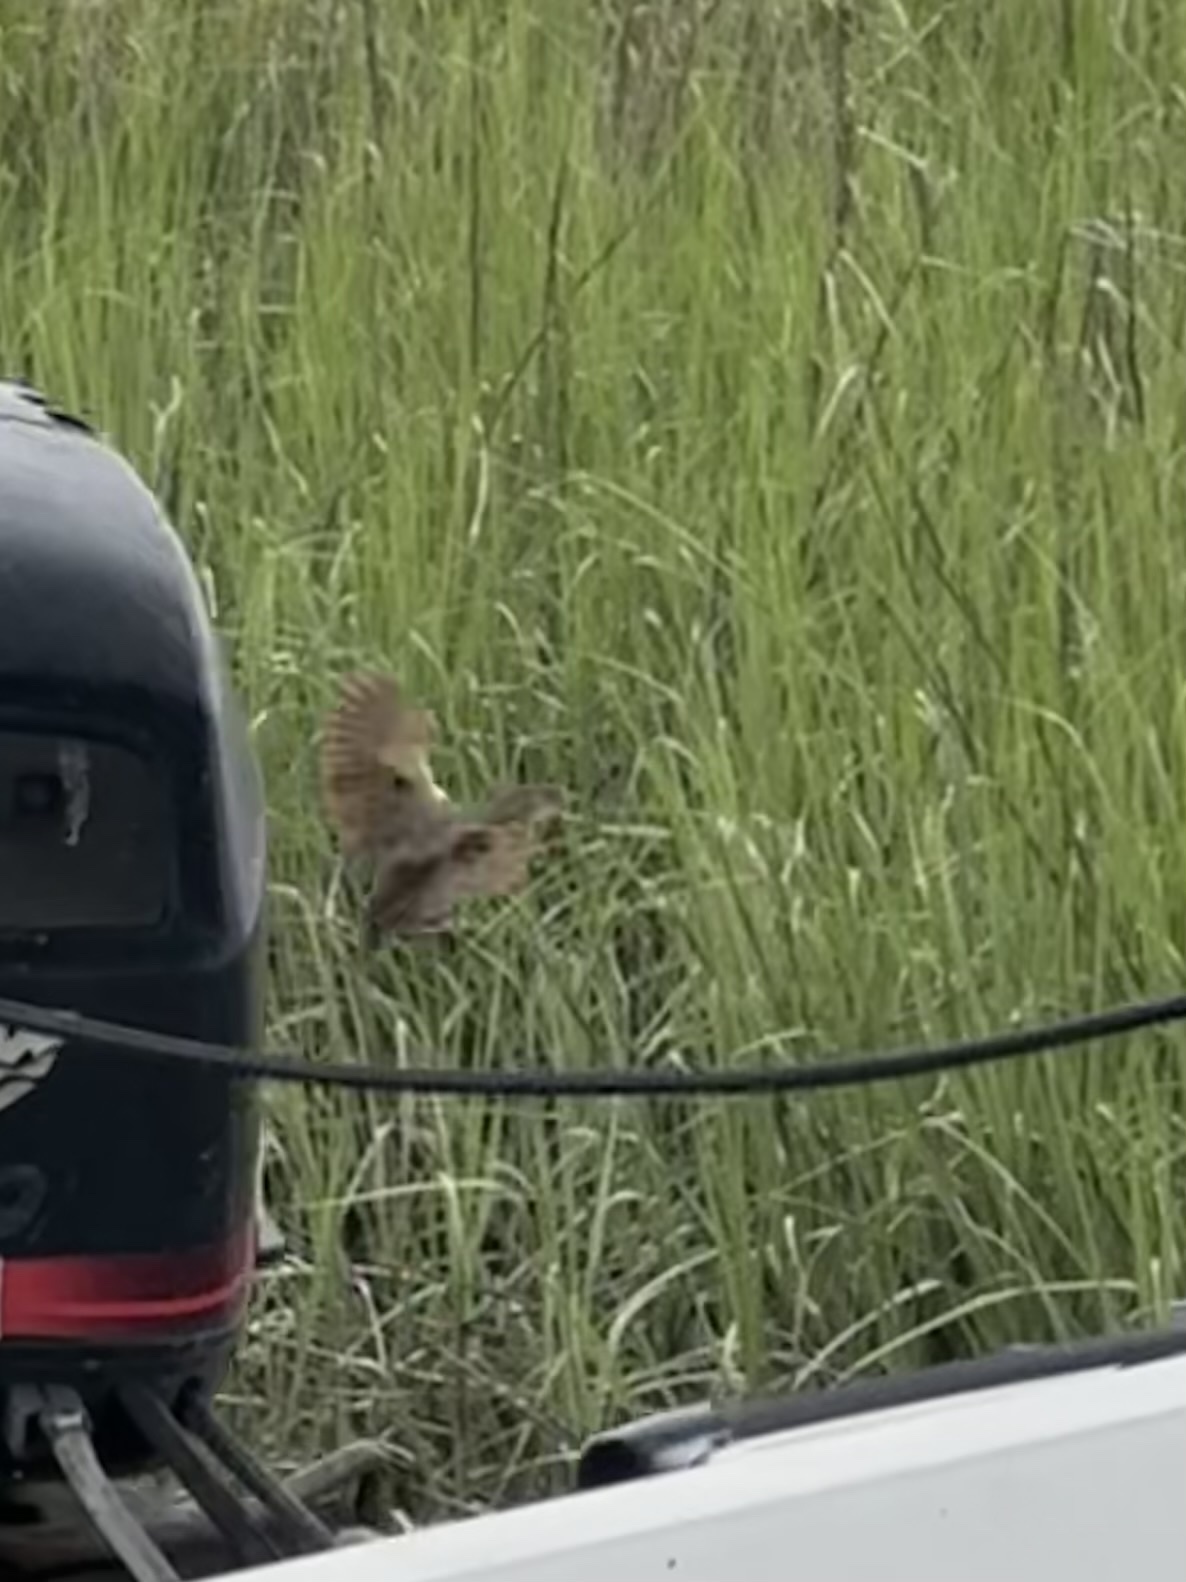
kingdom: Animalia
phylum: Chordata
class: Aves
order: Gruiformes
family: Rallidae
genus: Rallus
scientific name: Rallus crepitans
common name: Clapper rail
